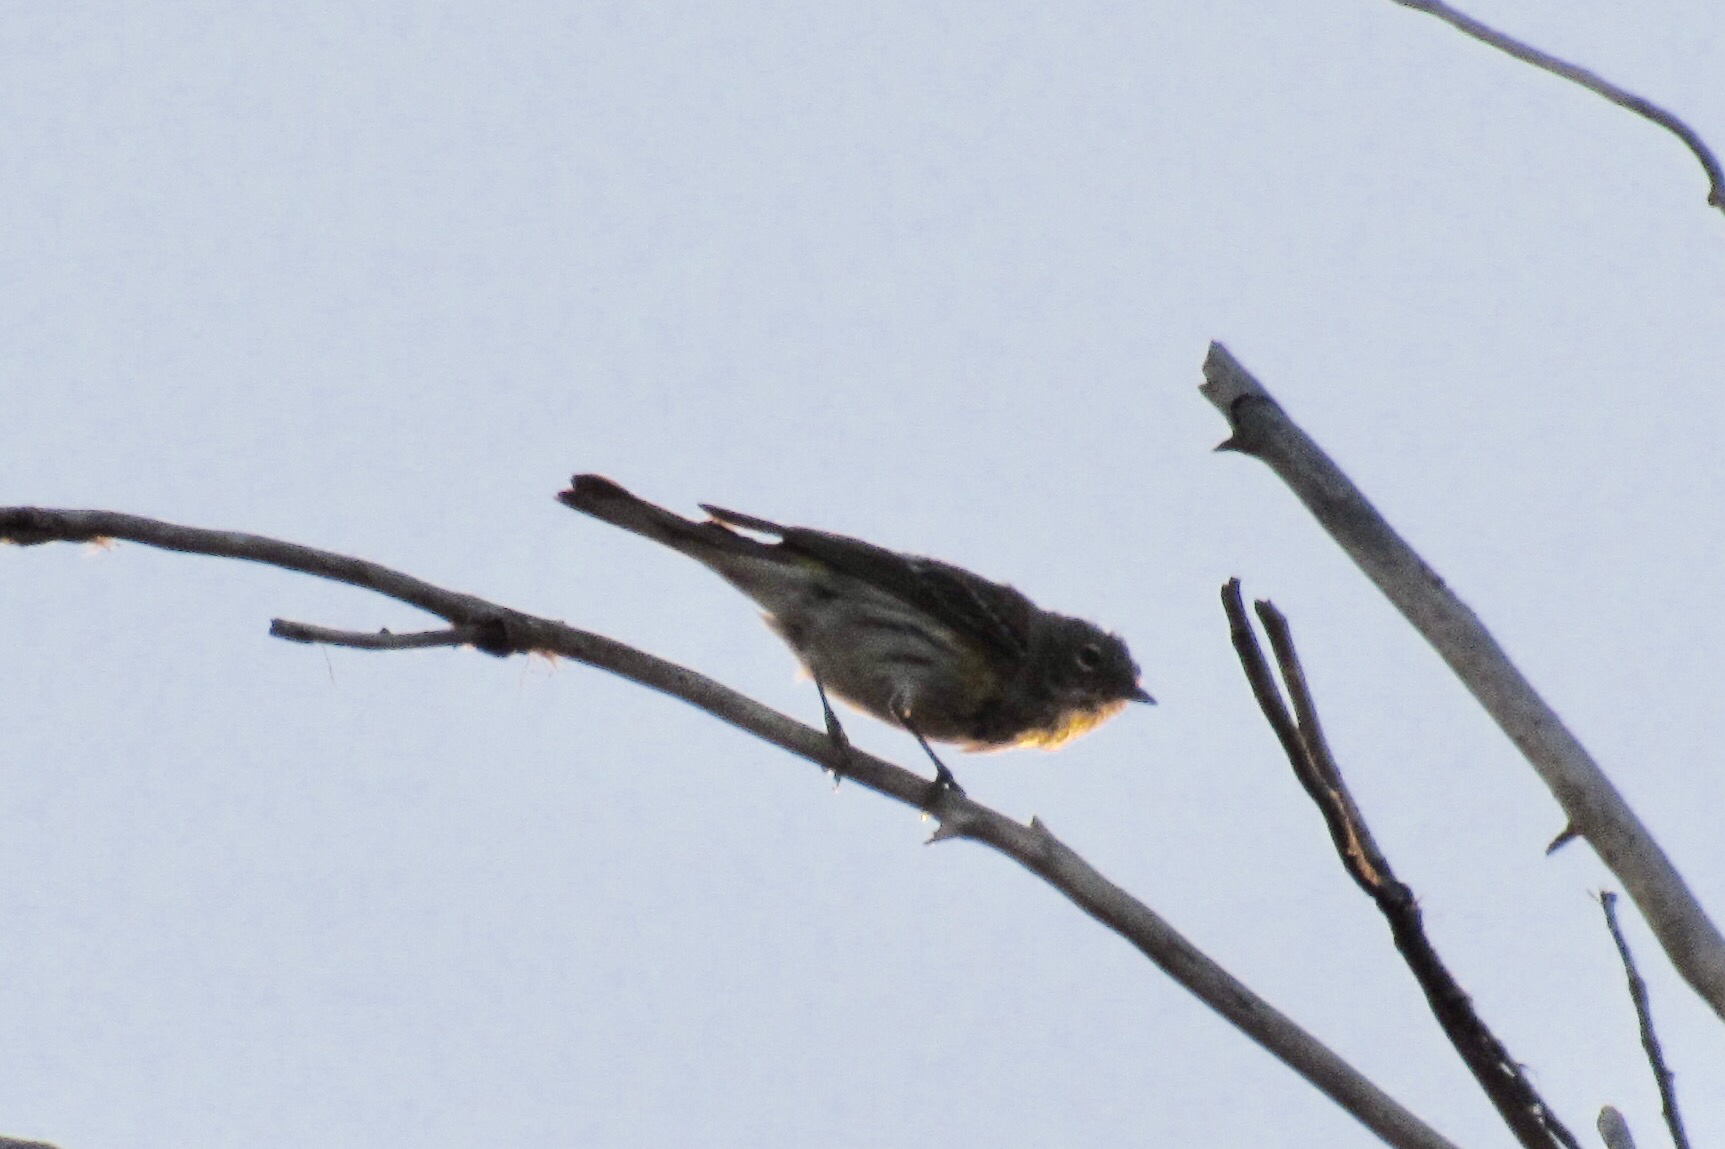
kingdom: Animalia
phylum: Chordata
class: Aves
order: Passeriformes
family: Parulidae
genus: Setophaga
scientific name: Setophaga auduboni
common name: Audubon's warbler
